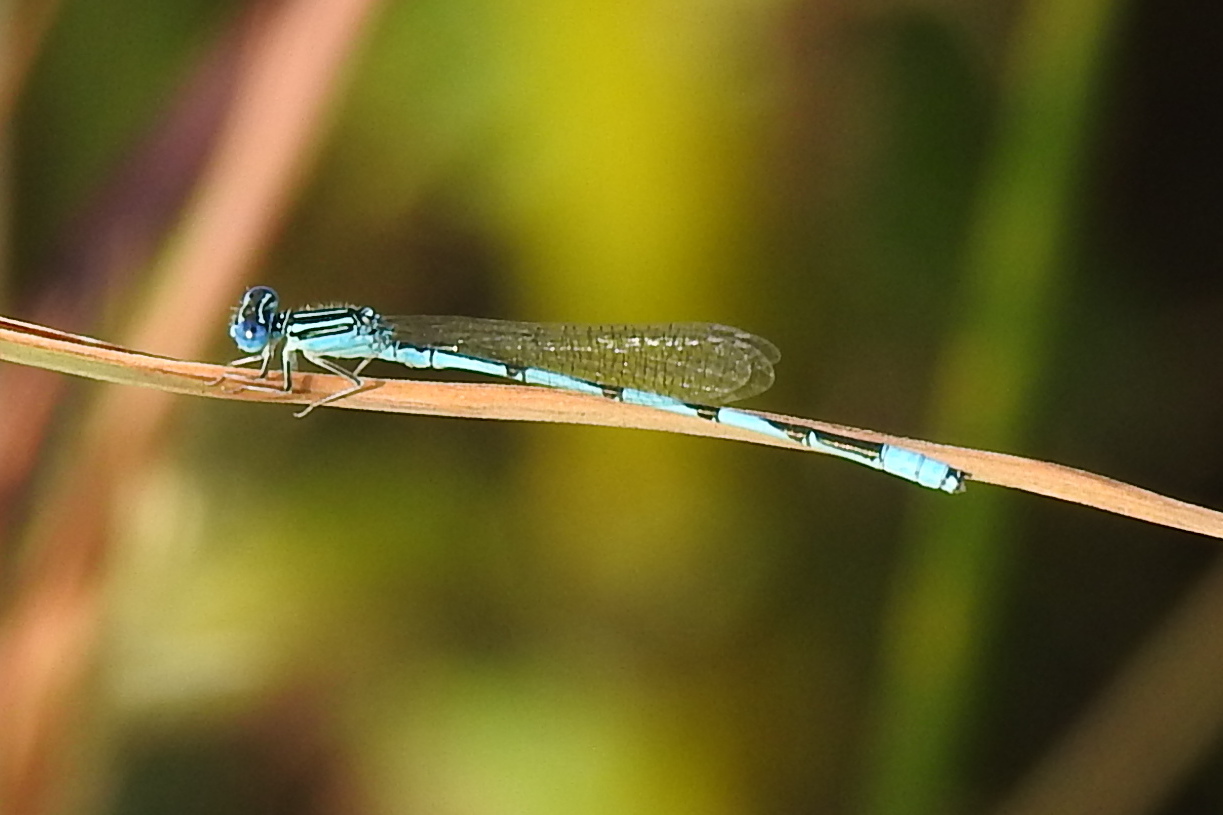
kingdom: Animalia
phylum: Arthropoda
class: Insecta
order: Odonata
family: Coenagrionidae
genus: Enallagma
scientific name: Enallagma basidens
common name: Double-striped bluet
